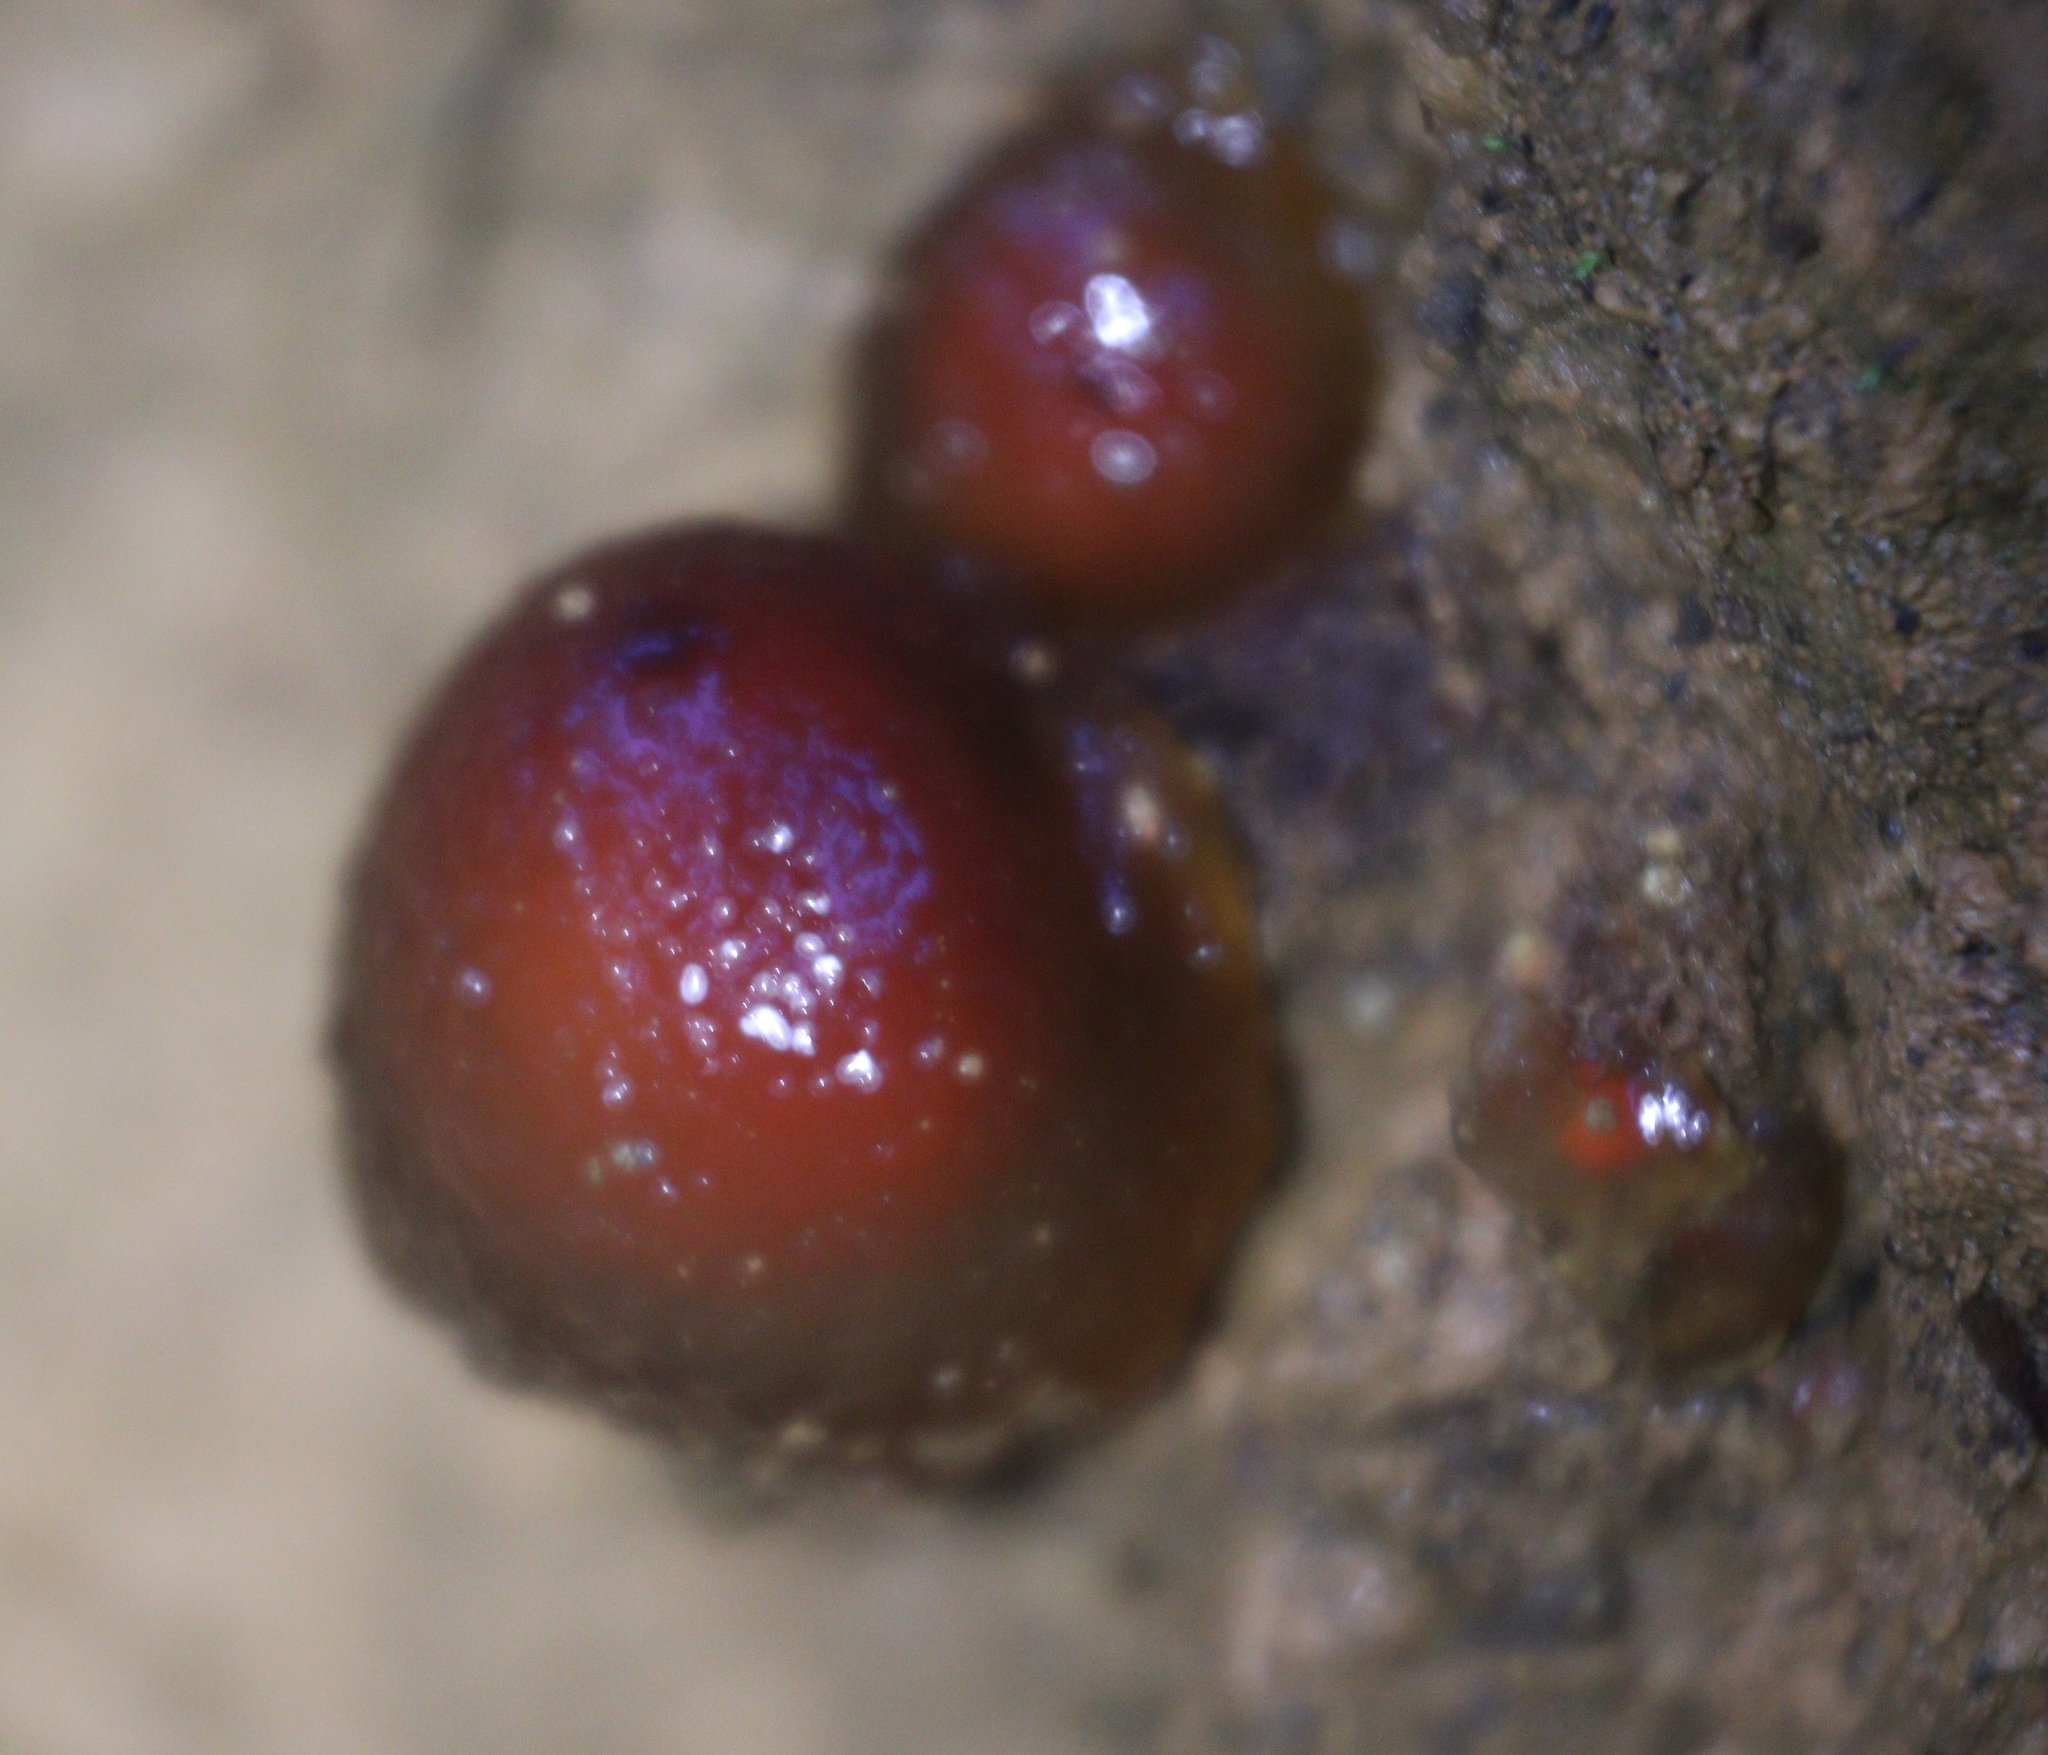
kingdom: Fungi
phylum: Basidiomycota
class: Agaricomycetes
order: Boletales
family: Calostomataceae
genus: Calostoma
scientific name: Calostoma cinnabarinum
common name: Stalked puffball-in-aspic
